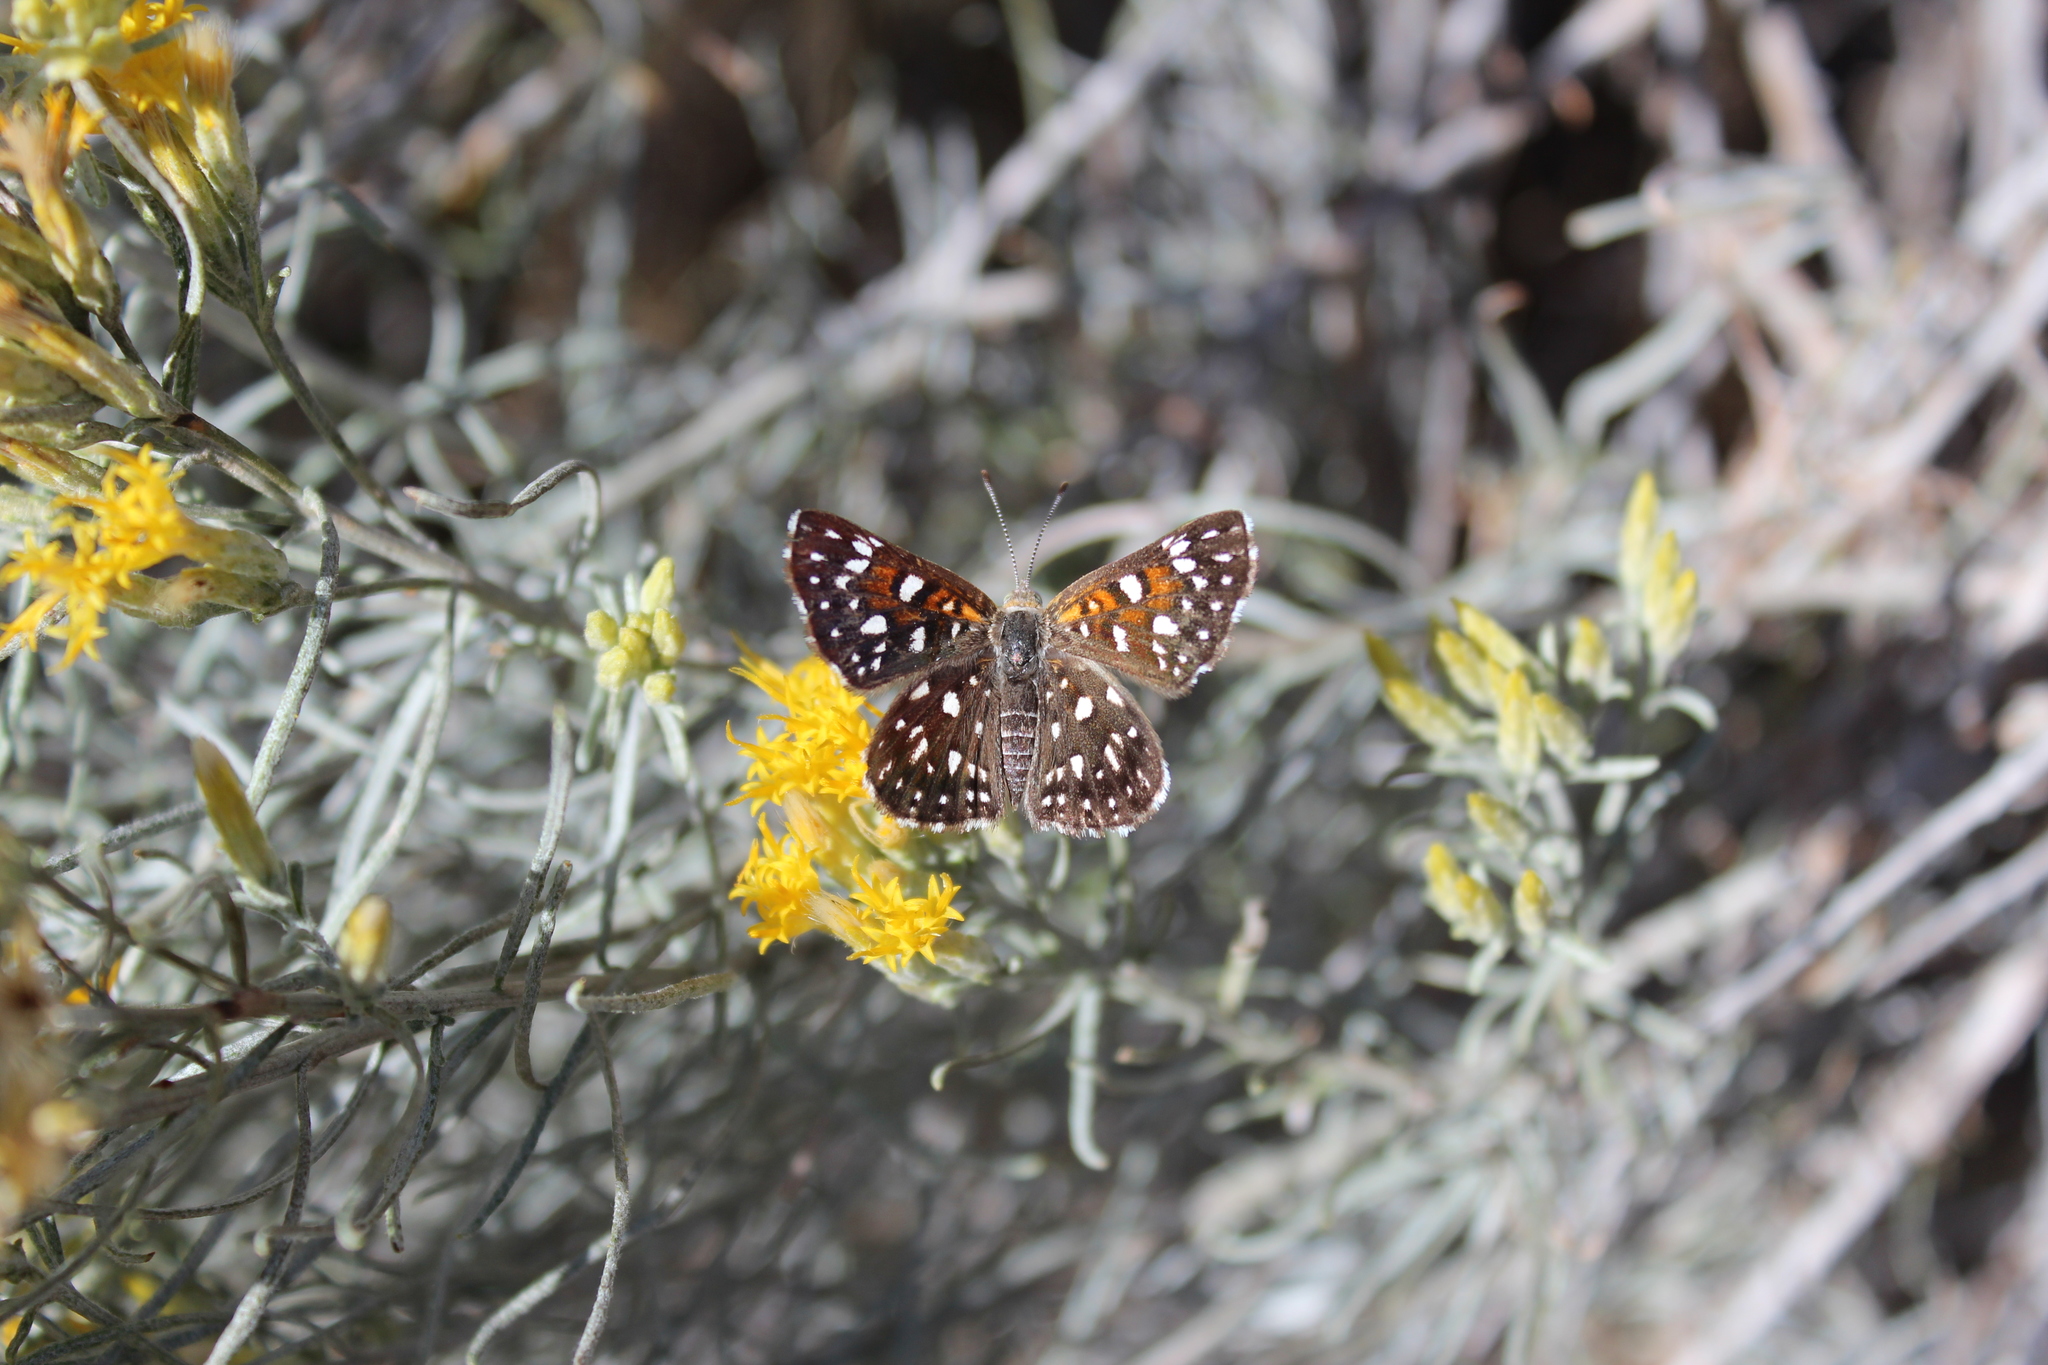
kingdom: Animalia
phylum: Arthropoda
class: Insecta
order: Lepidoptera
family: Riodinidae
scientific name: Riodinidae
